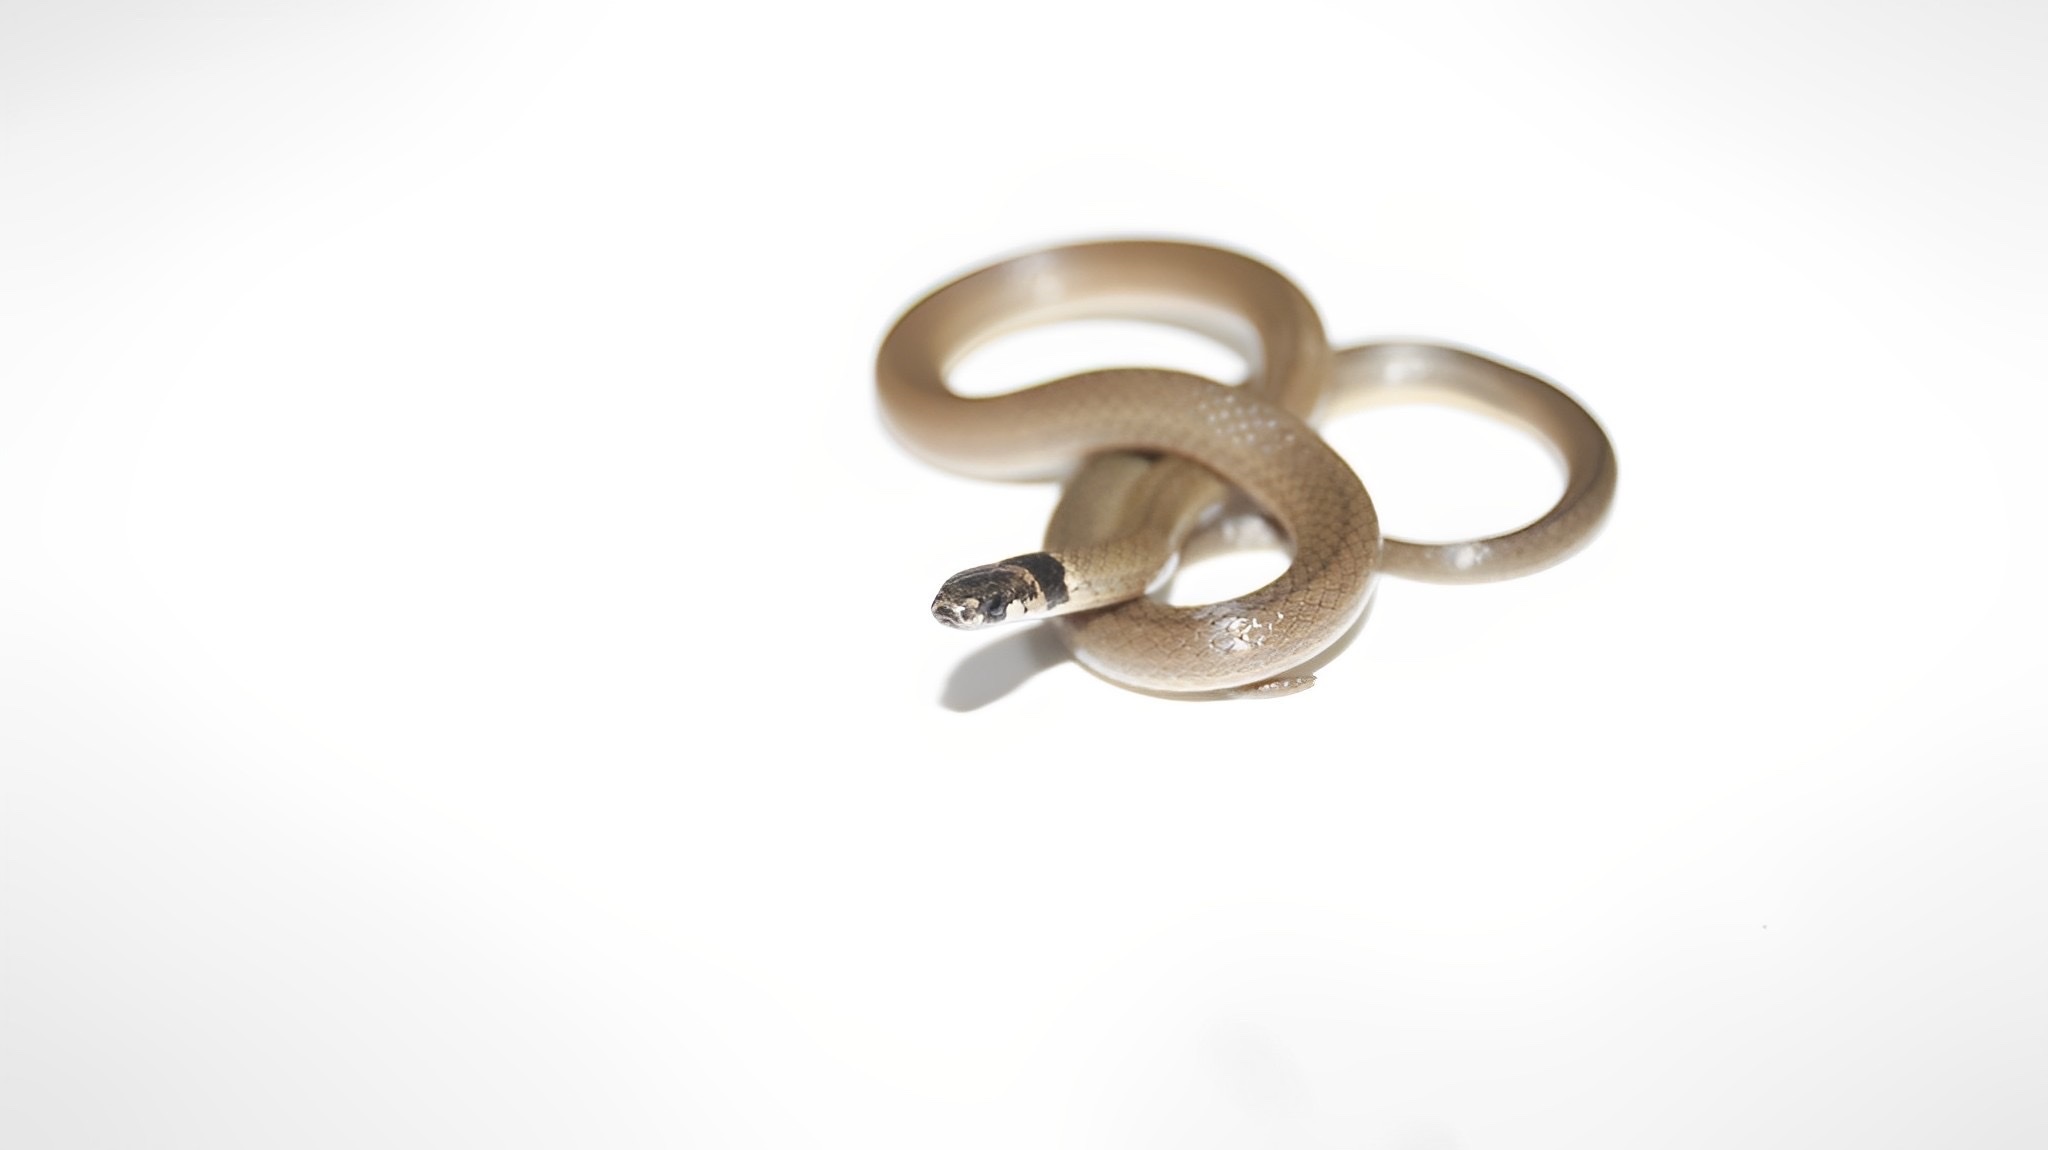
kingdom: Animalia
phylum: Chordata
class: Squamata
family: Colubridae
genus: Tantilla
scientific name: Tantilla melanocephala
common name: Black-headed snake
